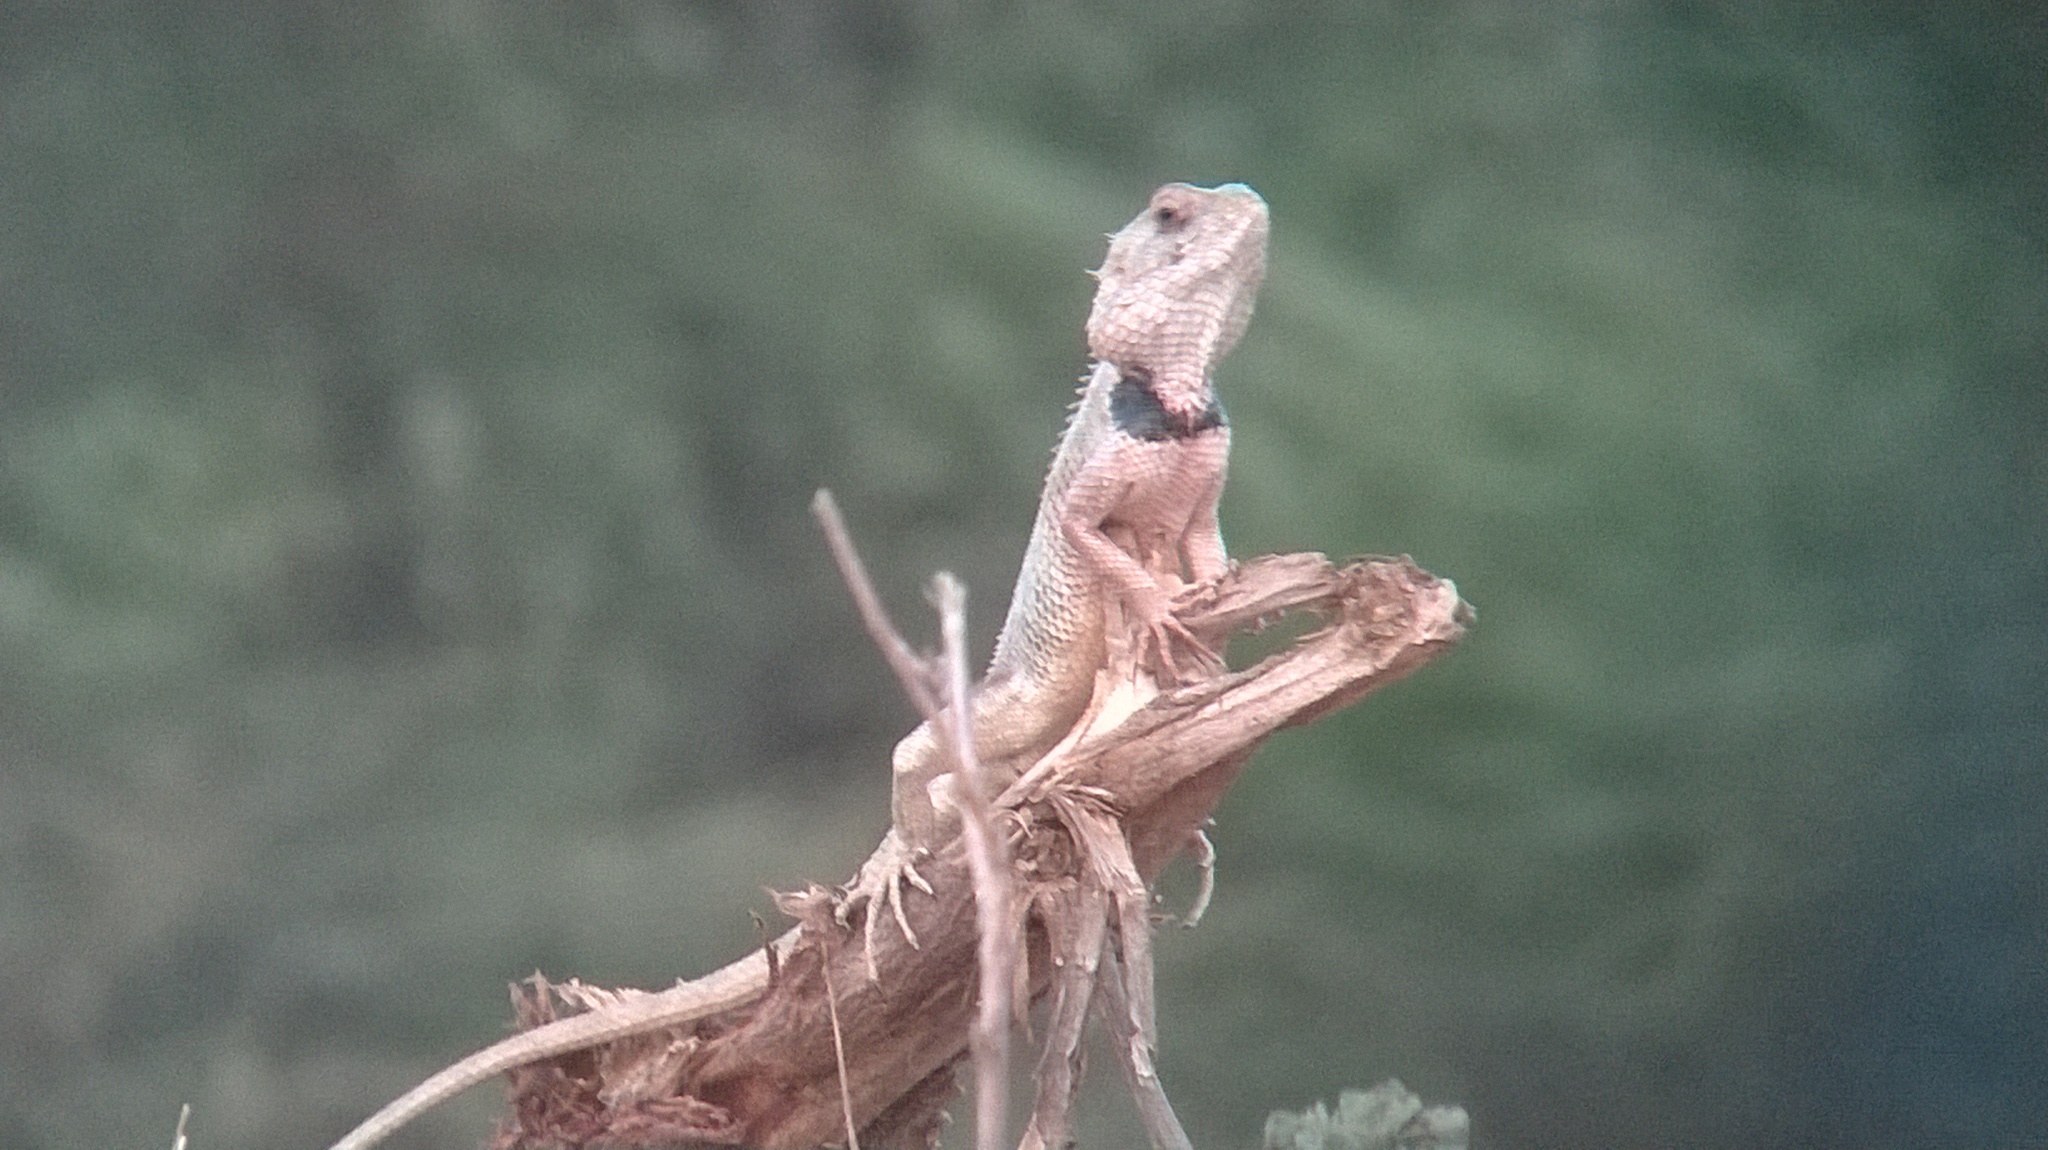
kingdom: Animalia
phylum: Chordata
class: Squamata
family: Agamidae
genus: Calotes
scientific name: Calotes versicolor
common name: Oriental garden lizard
